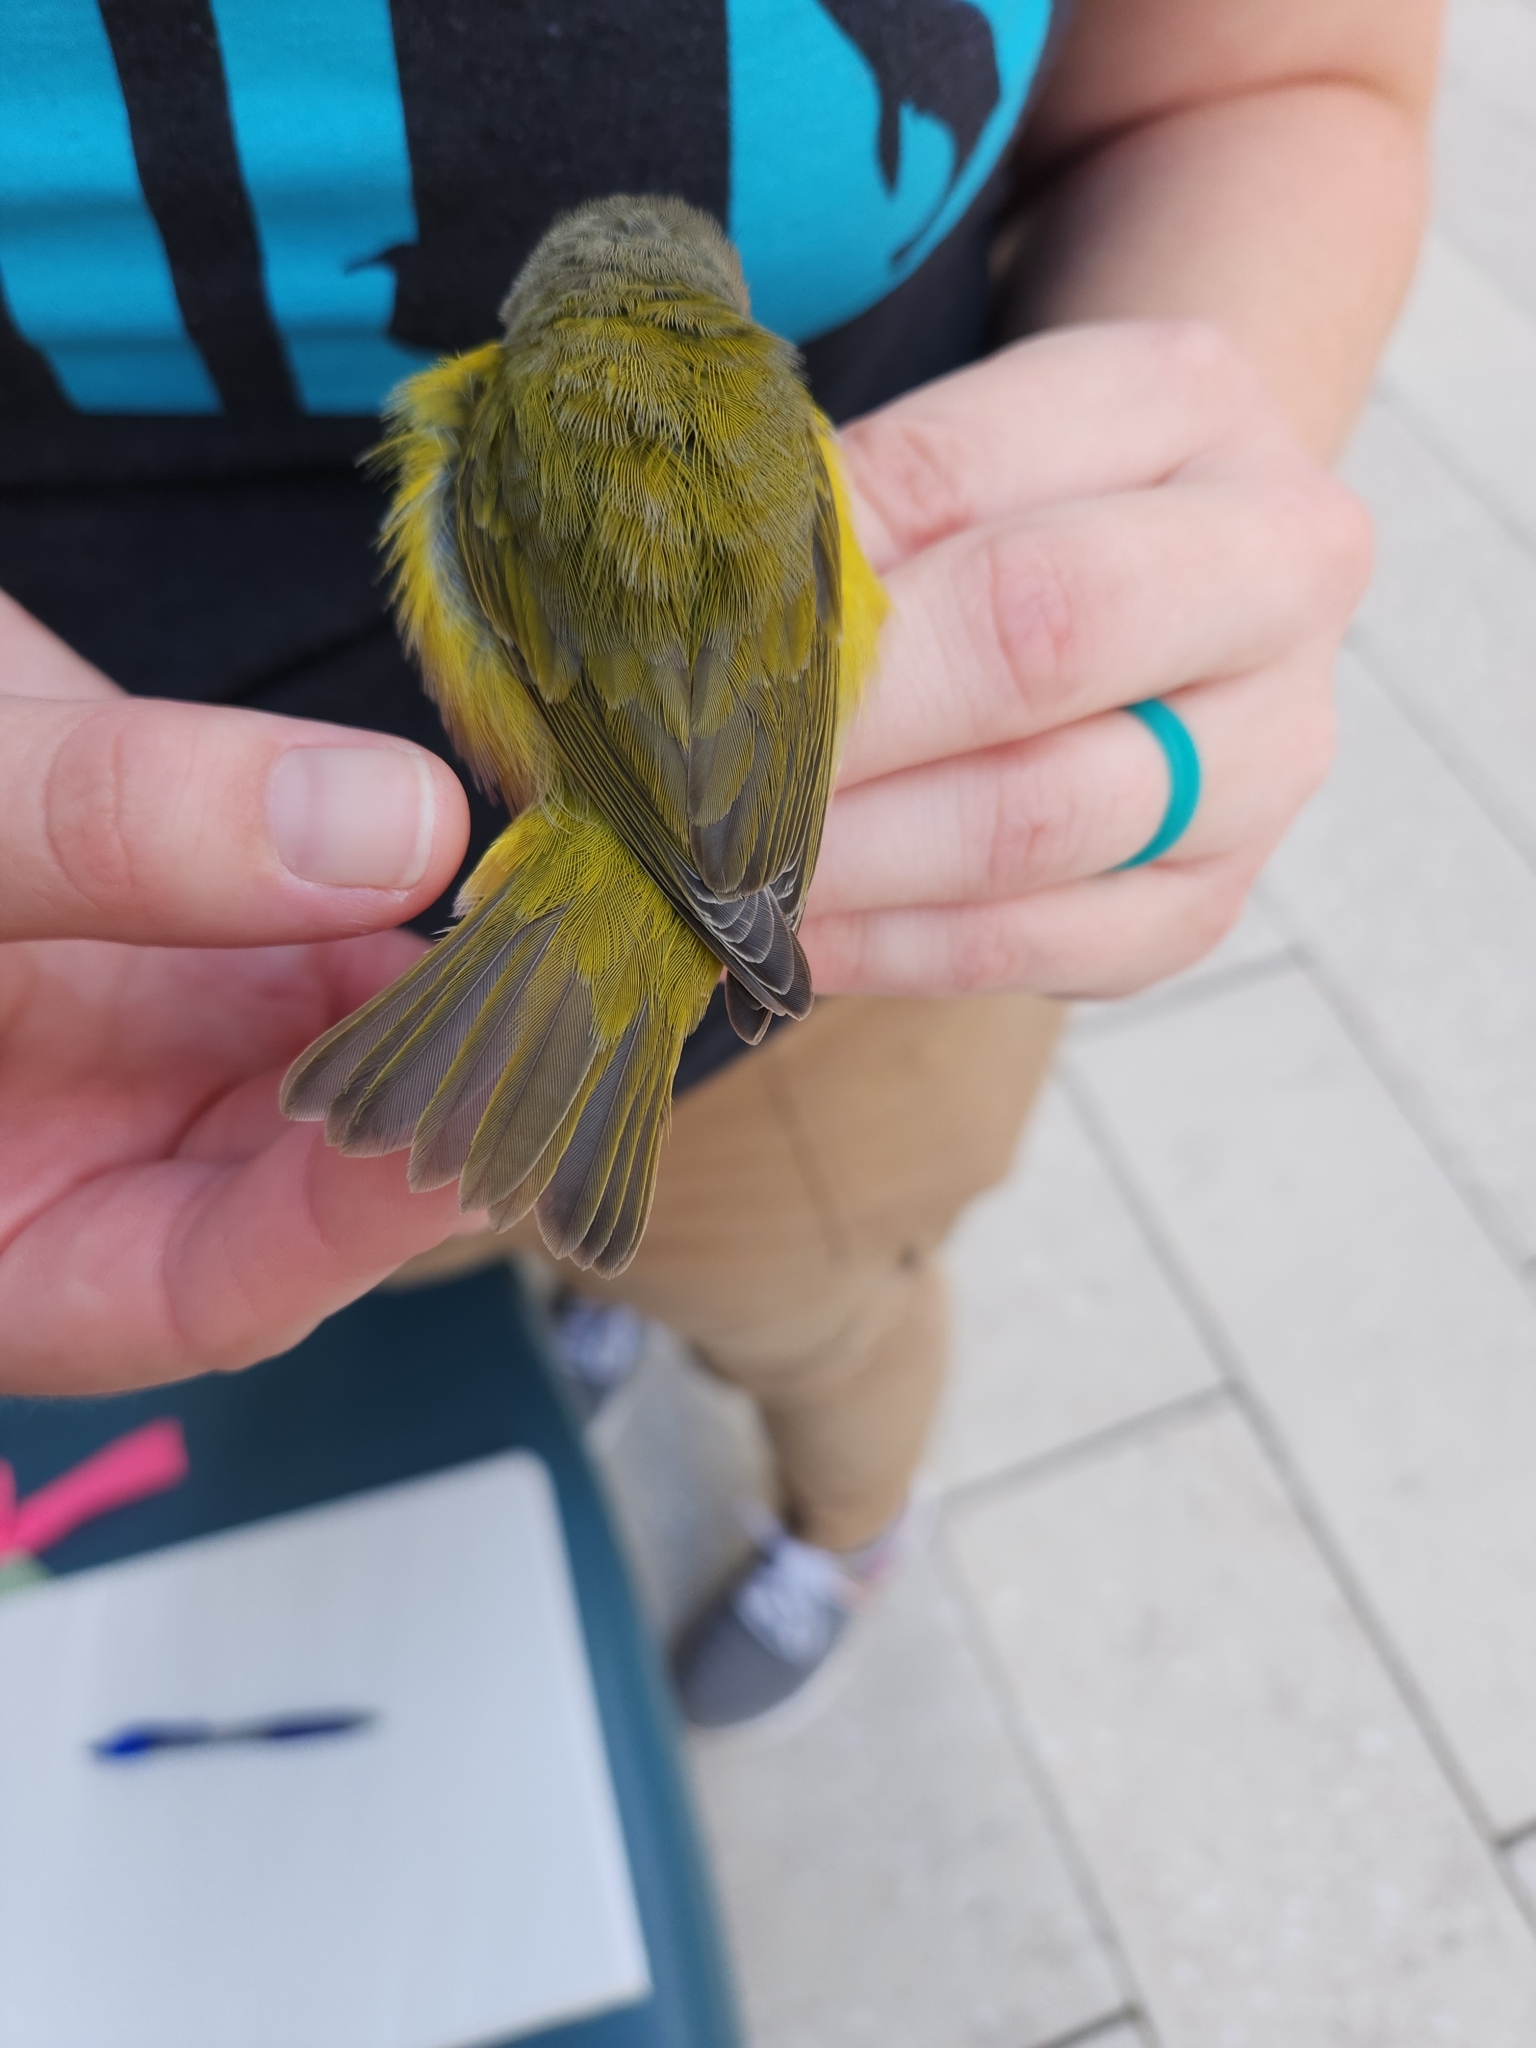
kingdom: Animalia
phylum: Chordata
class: Aves
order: Passeriformes
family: Parulidae
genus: Leiothlypis
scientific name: Leiothlypis ruficapilla
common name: Nashville warbler
